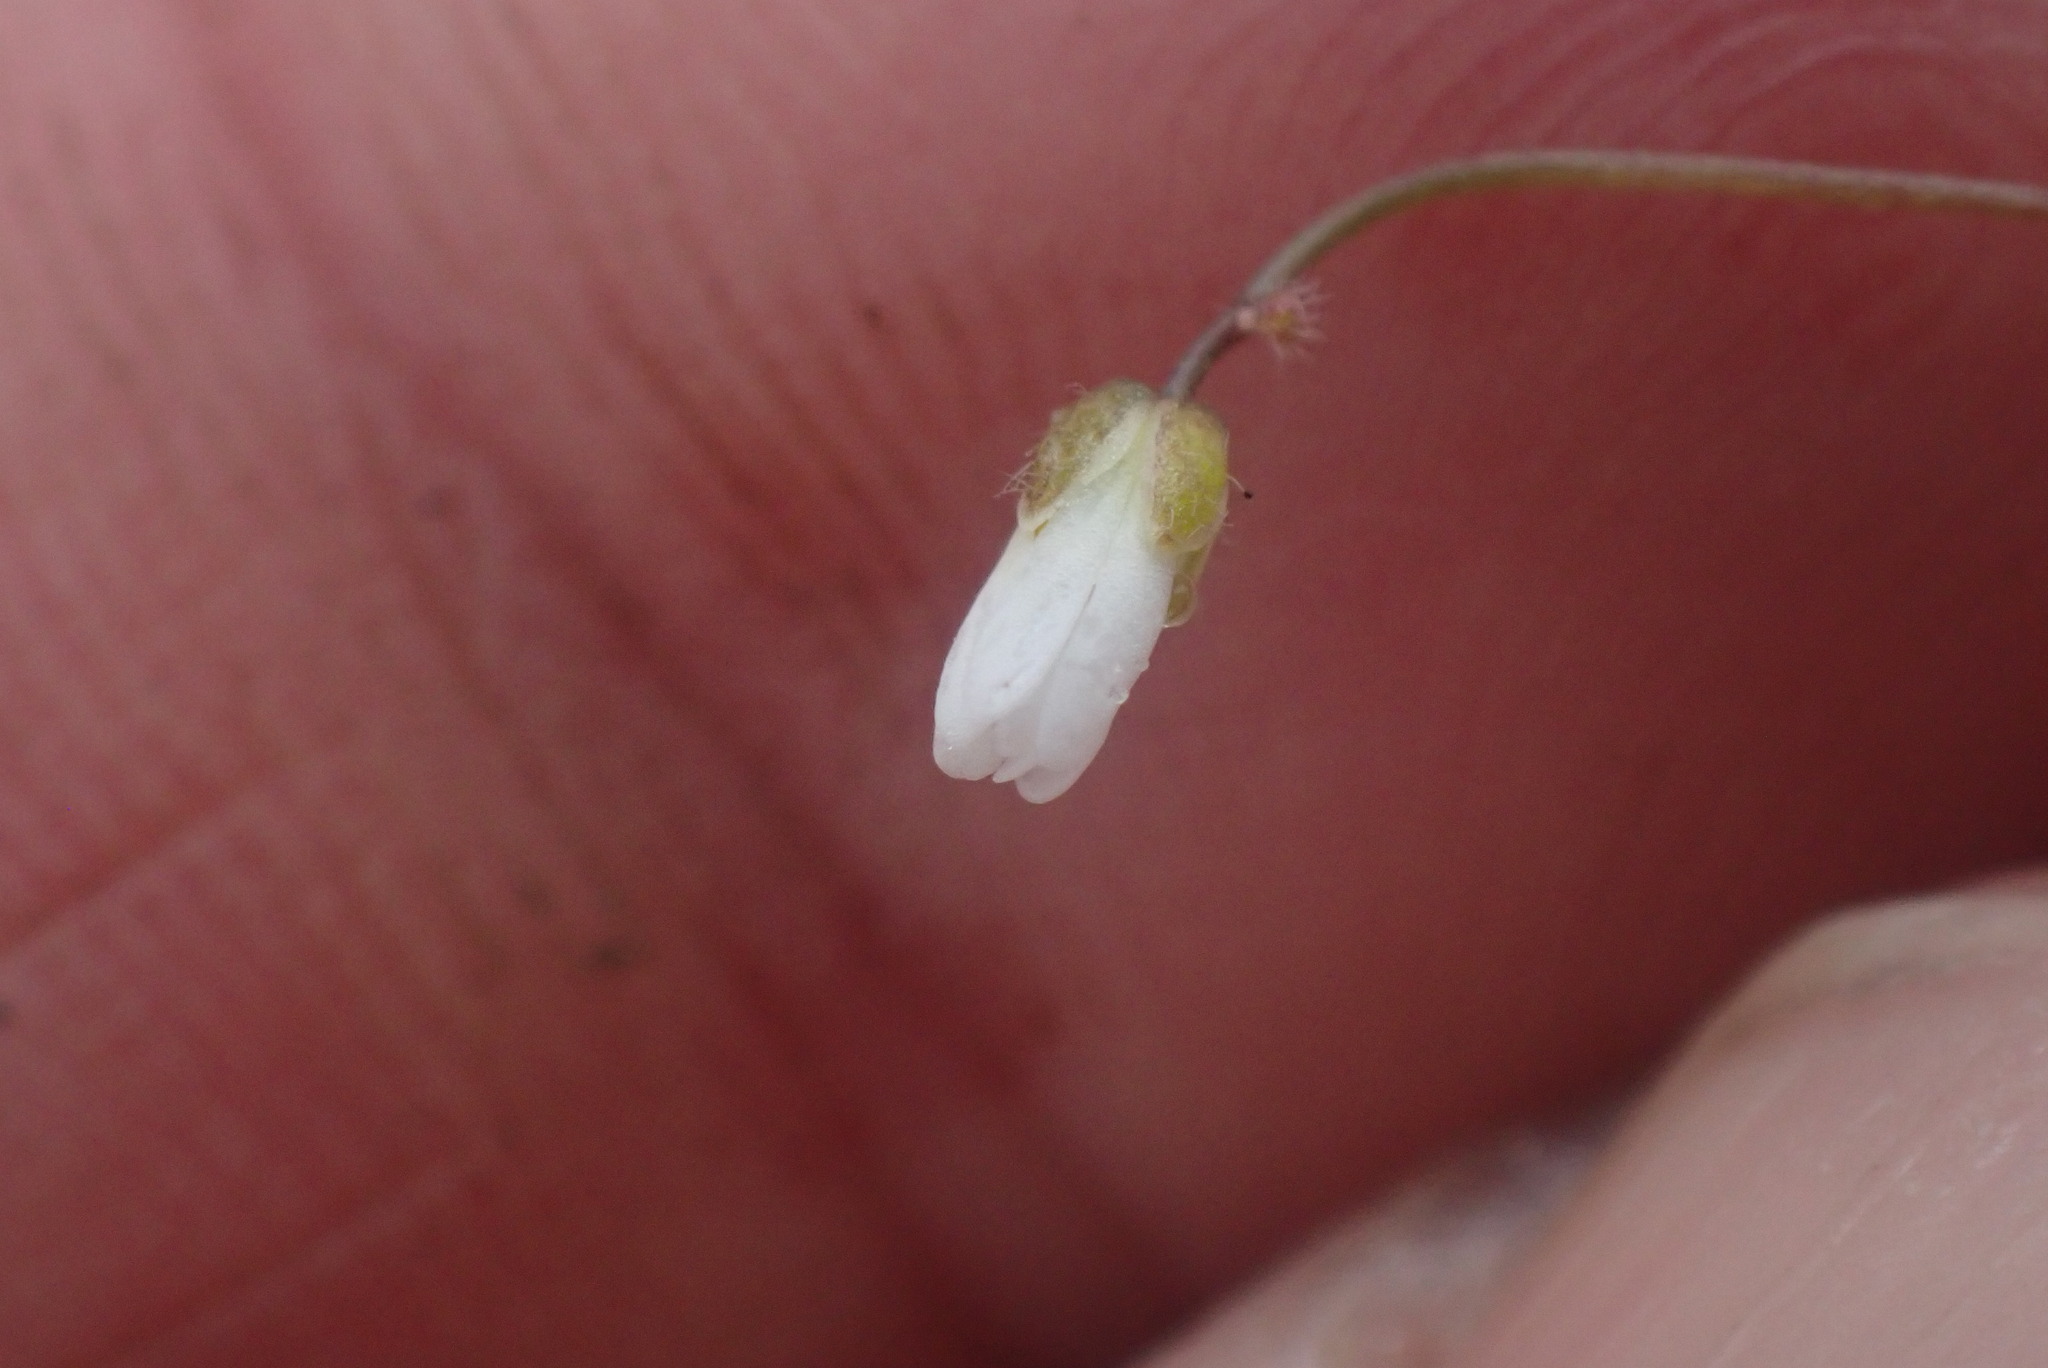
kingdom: Plantae
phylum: Tracheophyta
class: Magnoliopsida
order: Brassicales
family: Brassicaceae
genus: Draba
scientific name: Draba verna
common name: Spring draba
